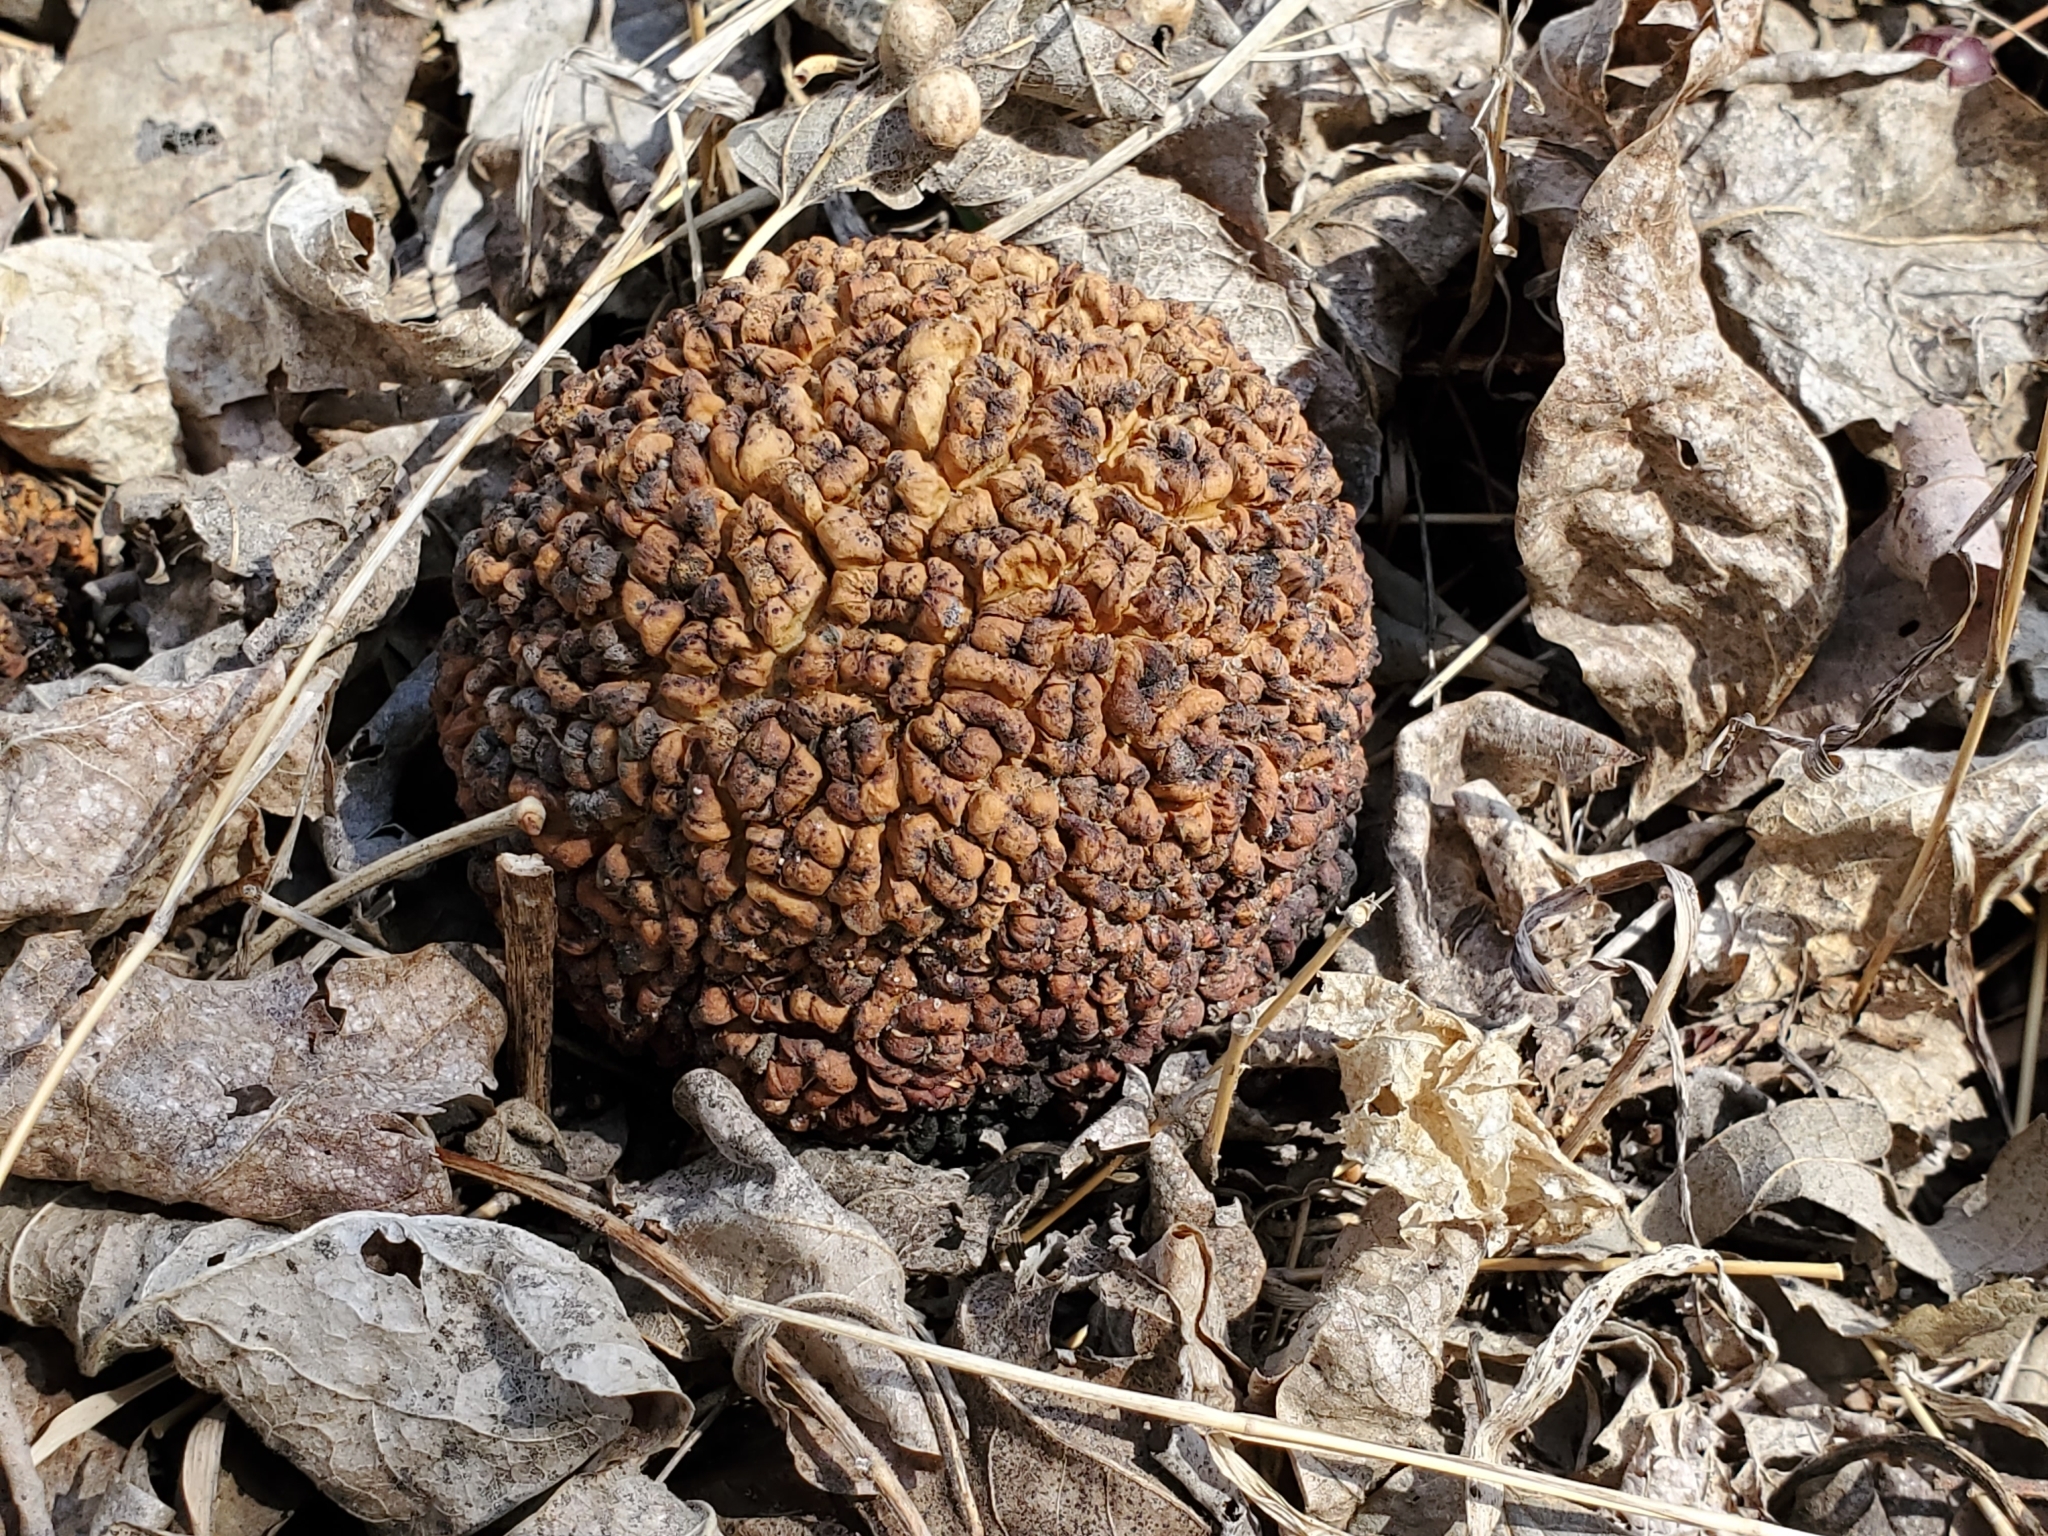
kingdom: Plantae
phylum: Tracheophyta
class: Magnoliopsida
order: Rosales
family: Moraceae
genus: Maclura
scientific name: Maclura pomifera
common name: Osage-orange
